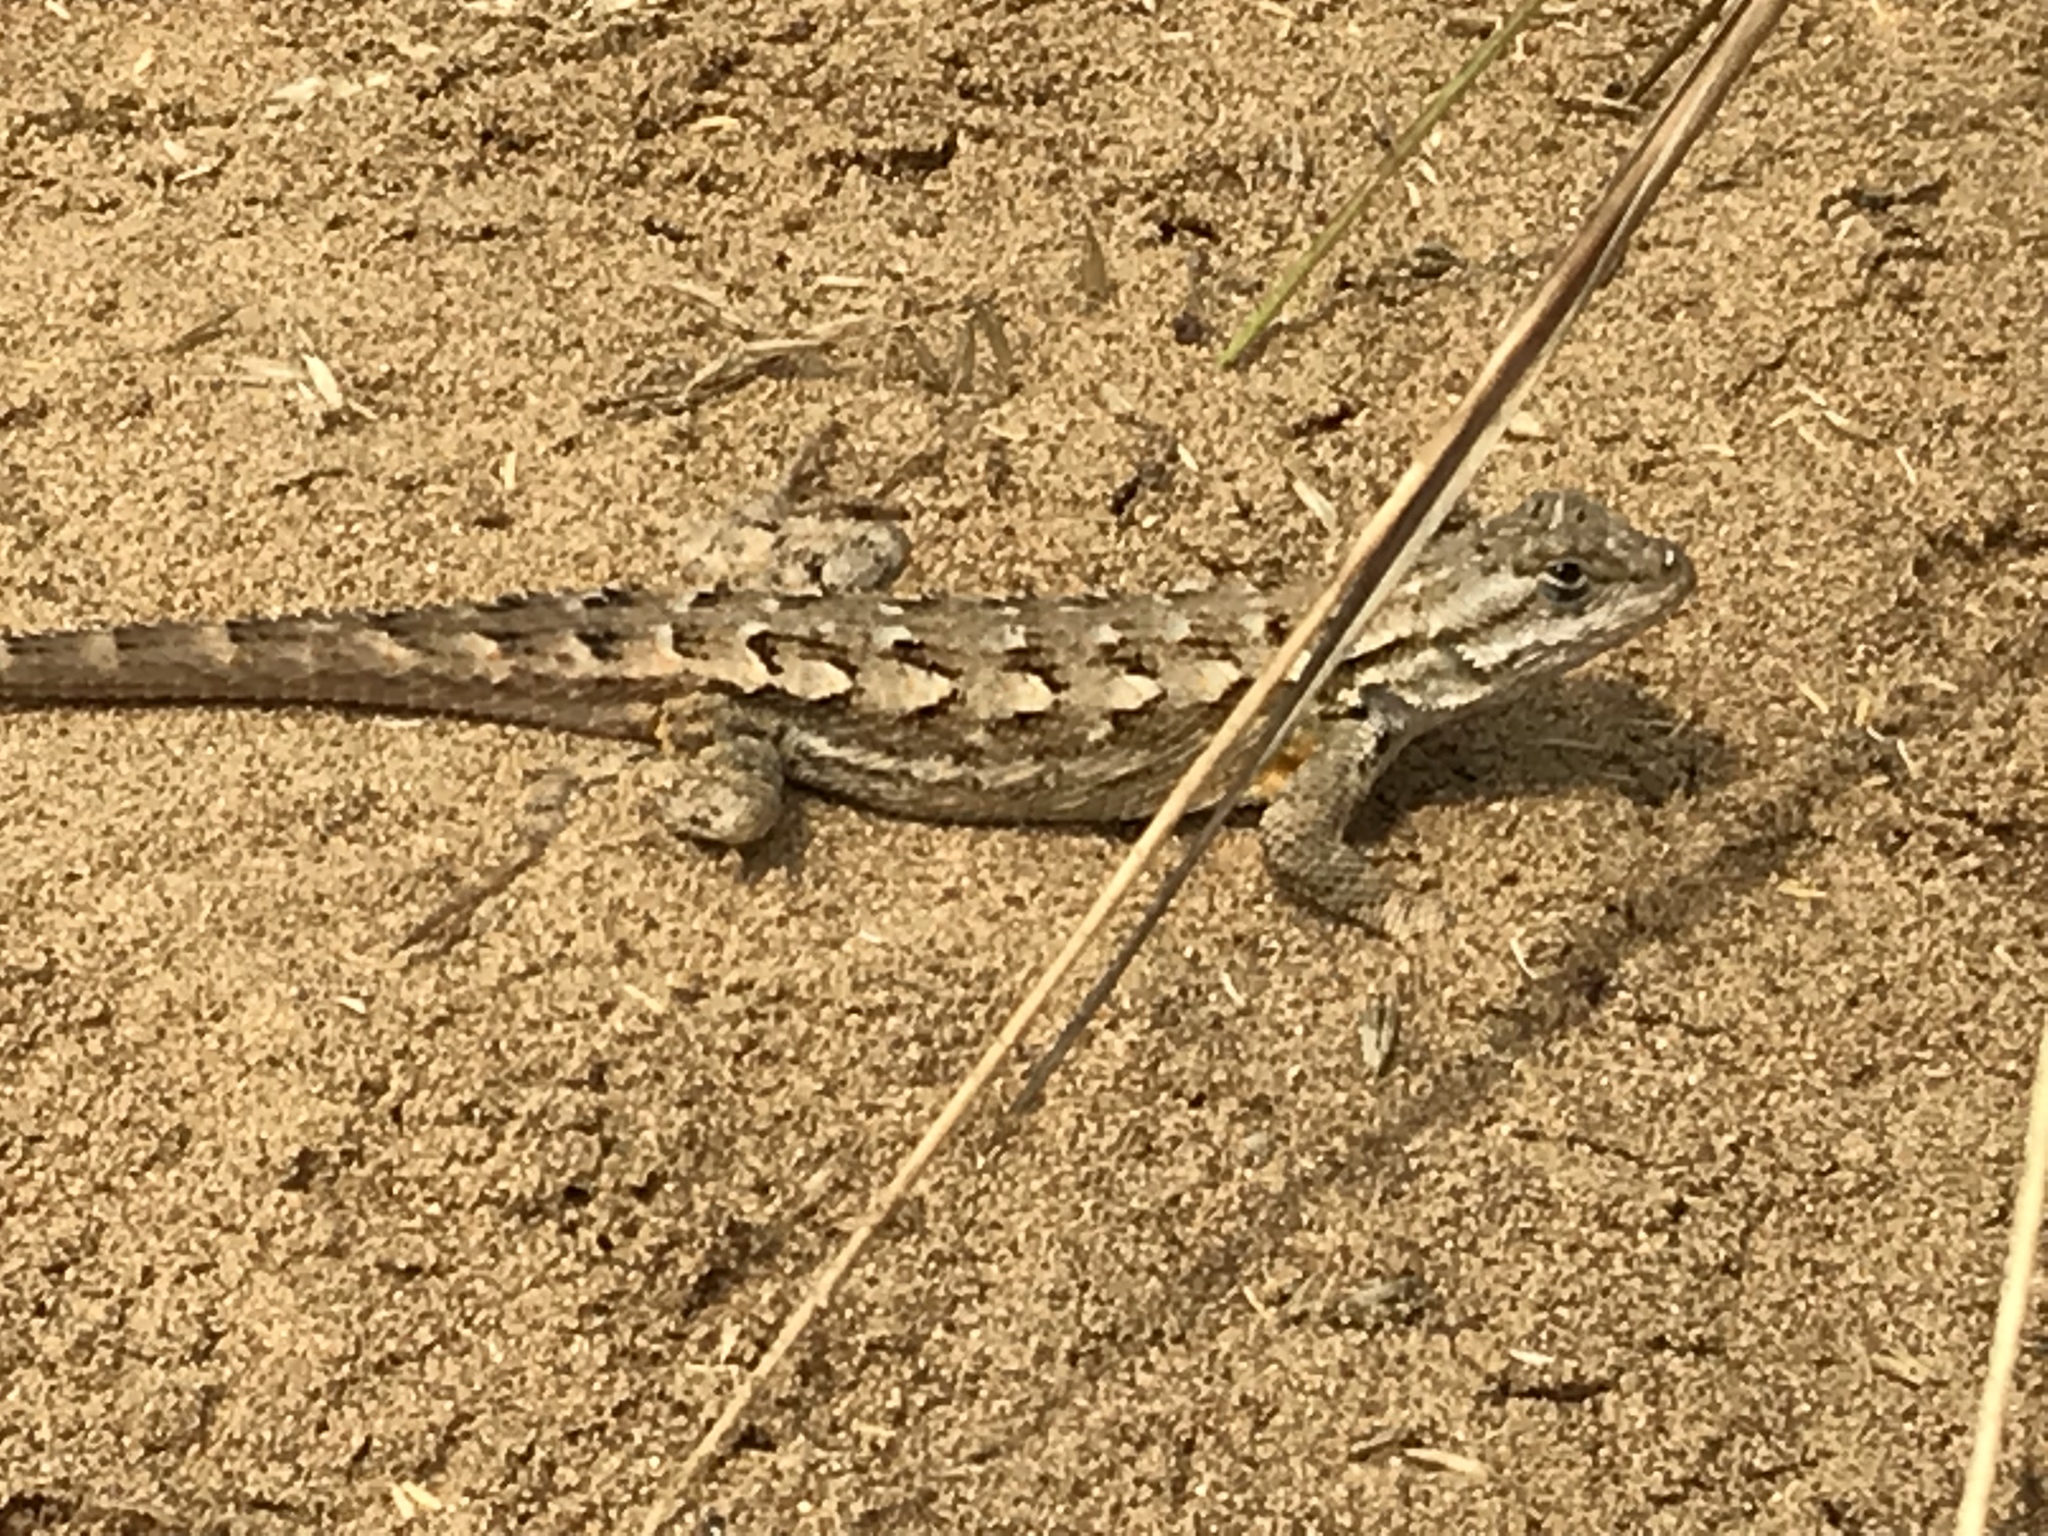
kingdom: Animalia
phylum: Chordata
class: Squamata
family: Phrynosomatidae
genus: Sceloporus
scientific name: Sceloporus occidentalis
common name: Western fence lizard
